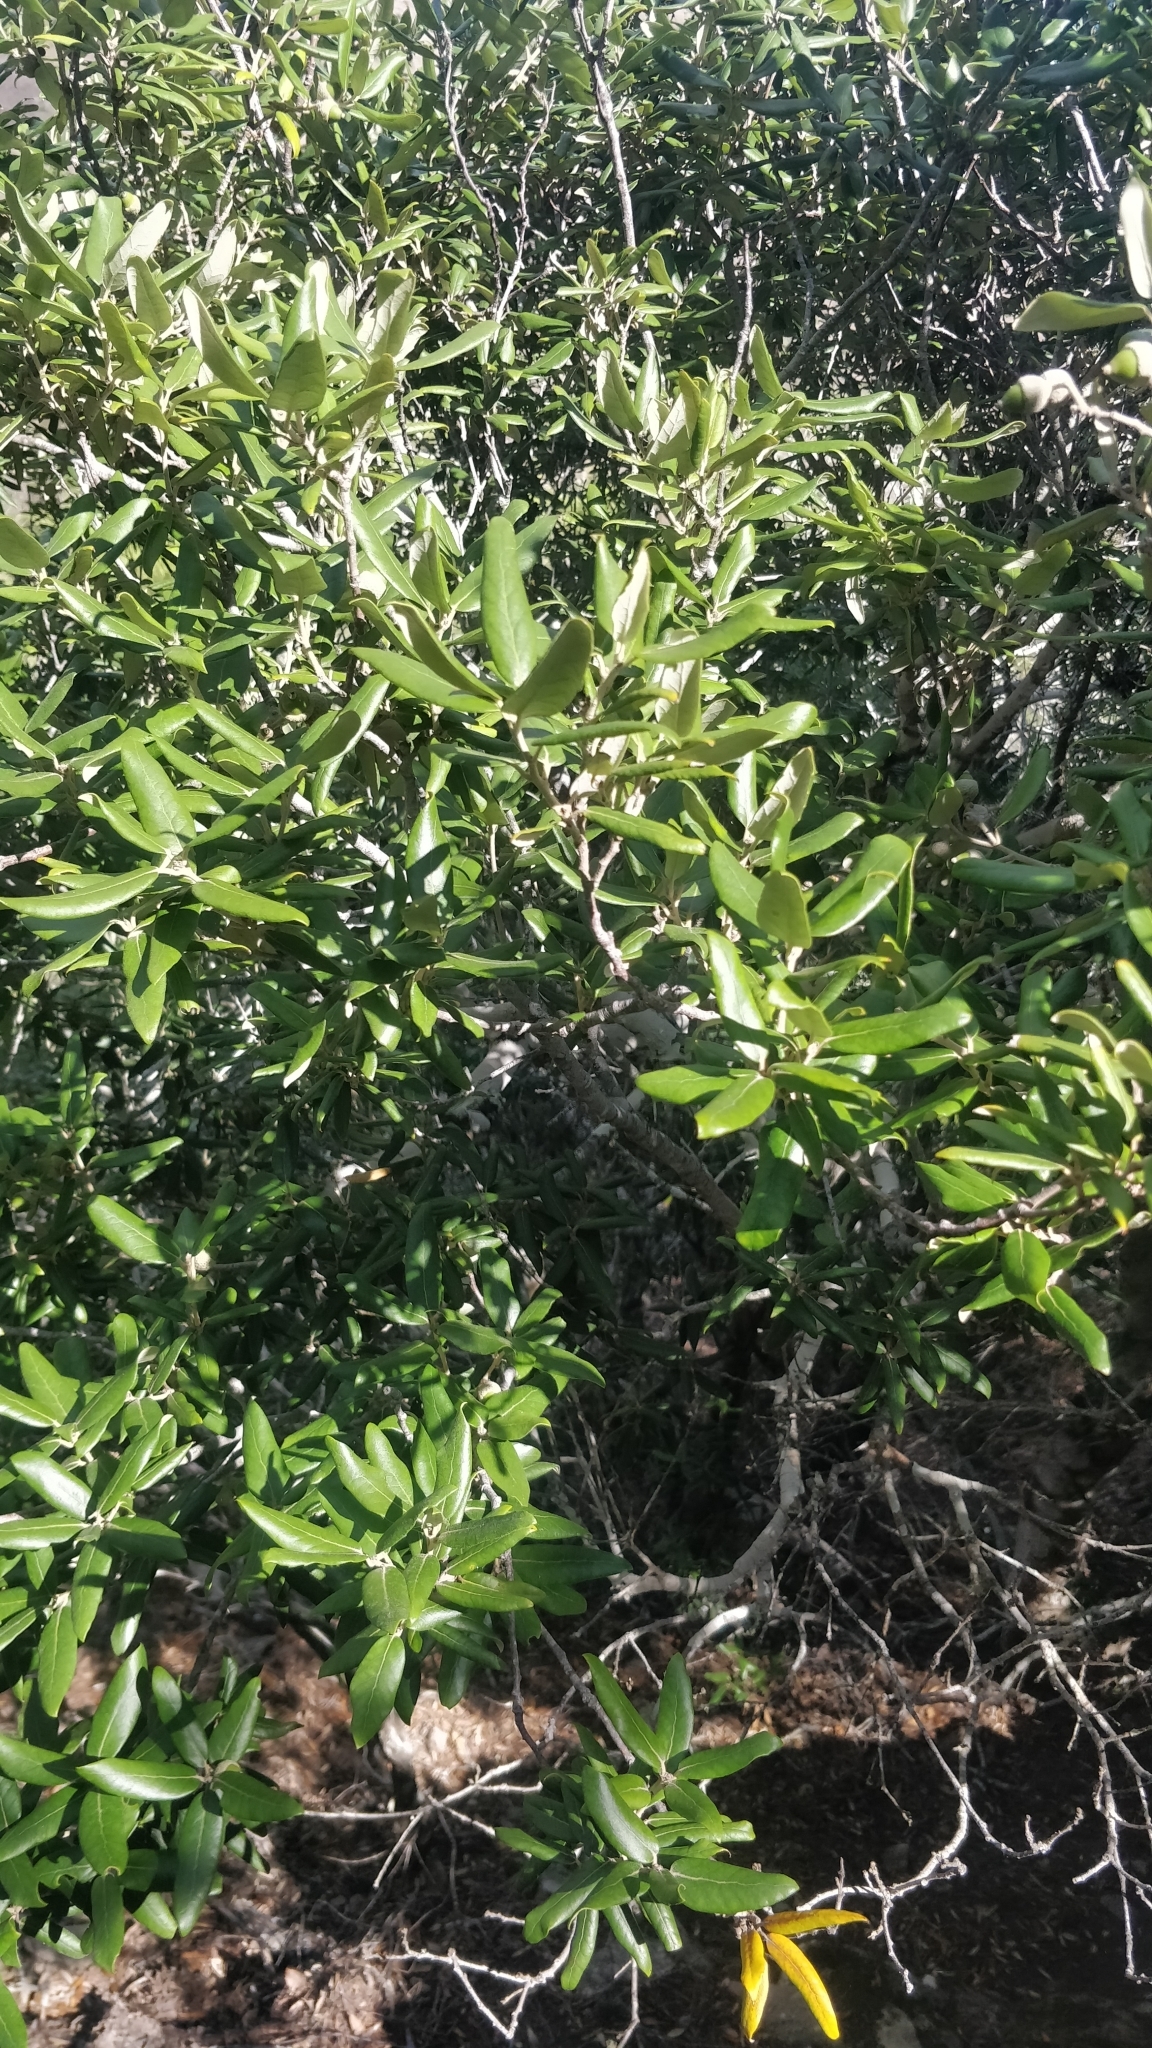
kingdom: Plantae
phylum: Tracheophyta
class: Magnoliopsida
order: Fagales
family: Fagaceae
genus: Quercus
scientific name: Quercus ilex
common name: Evergreen oak
